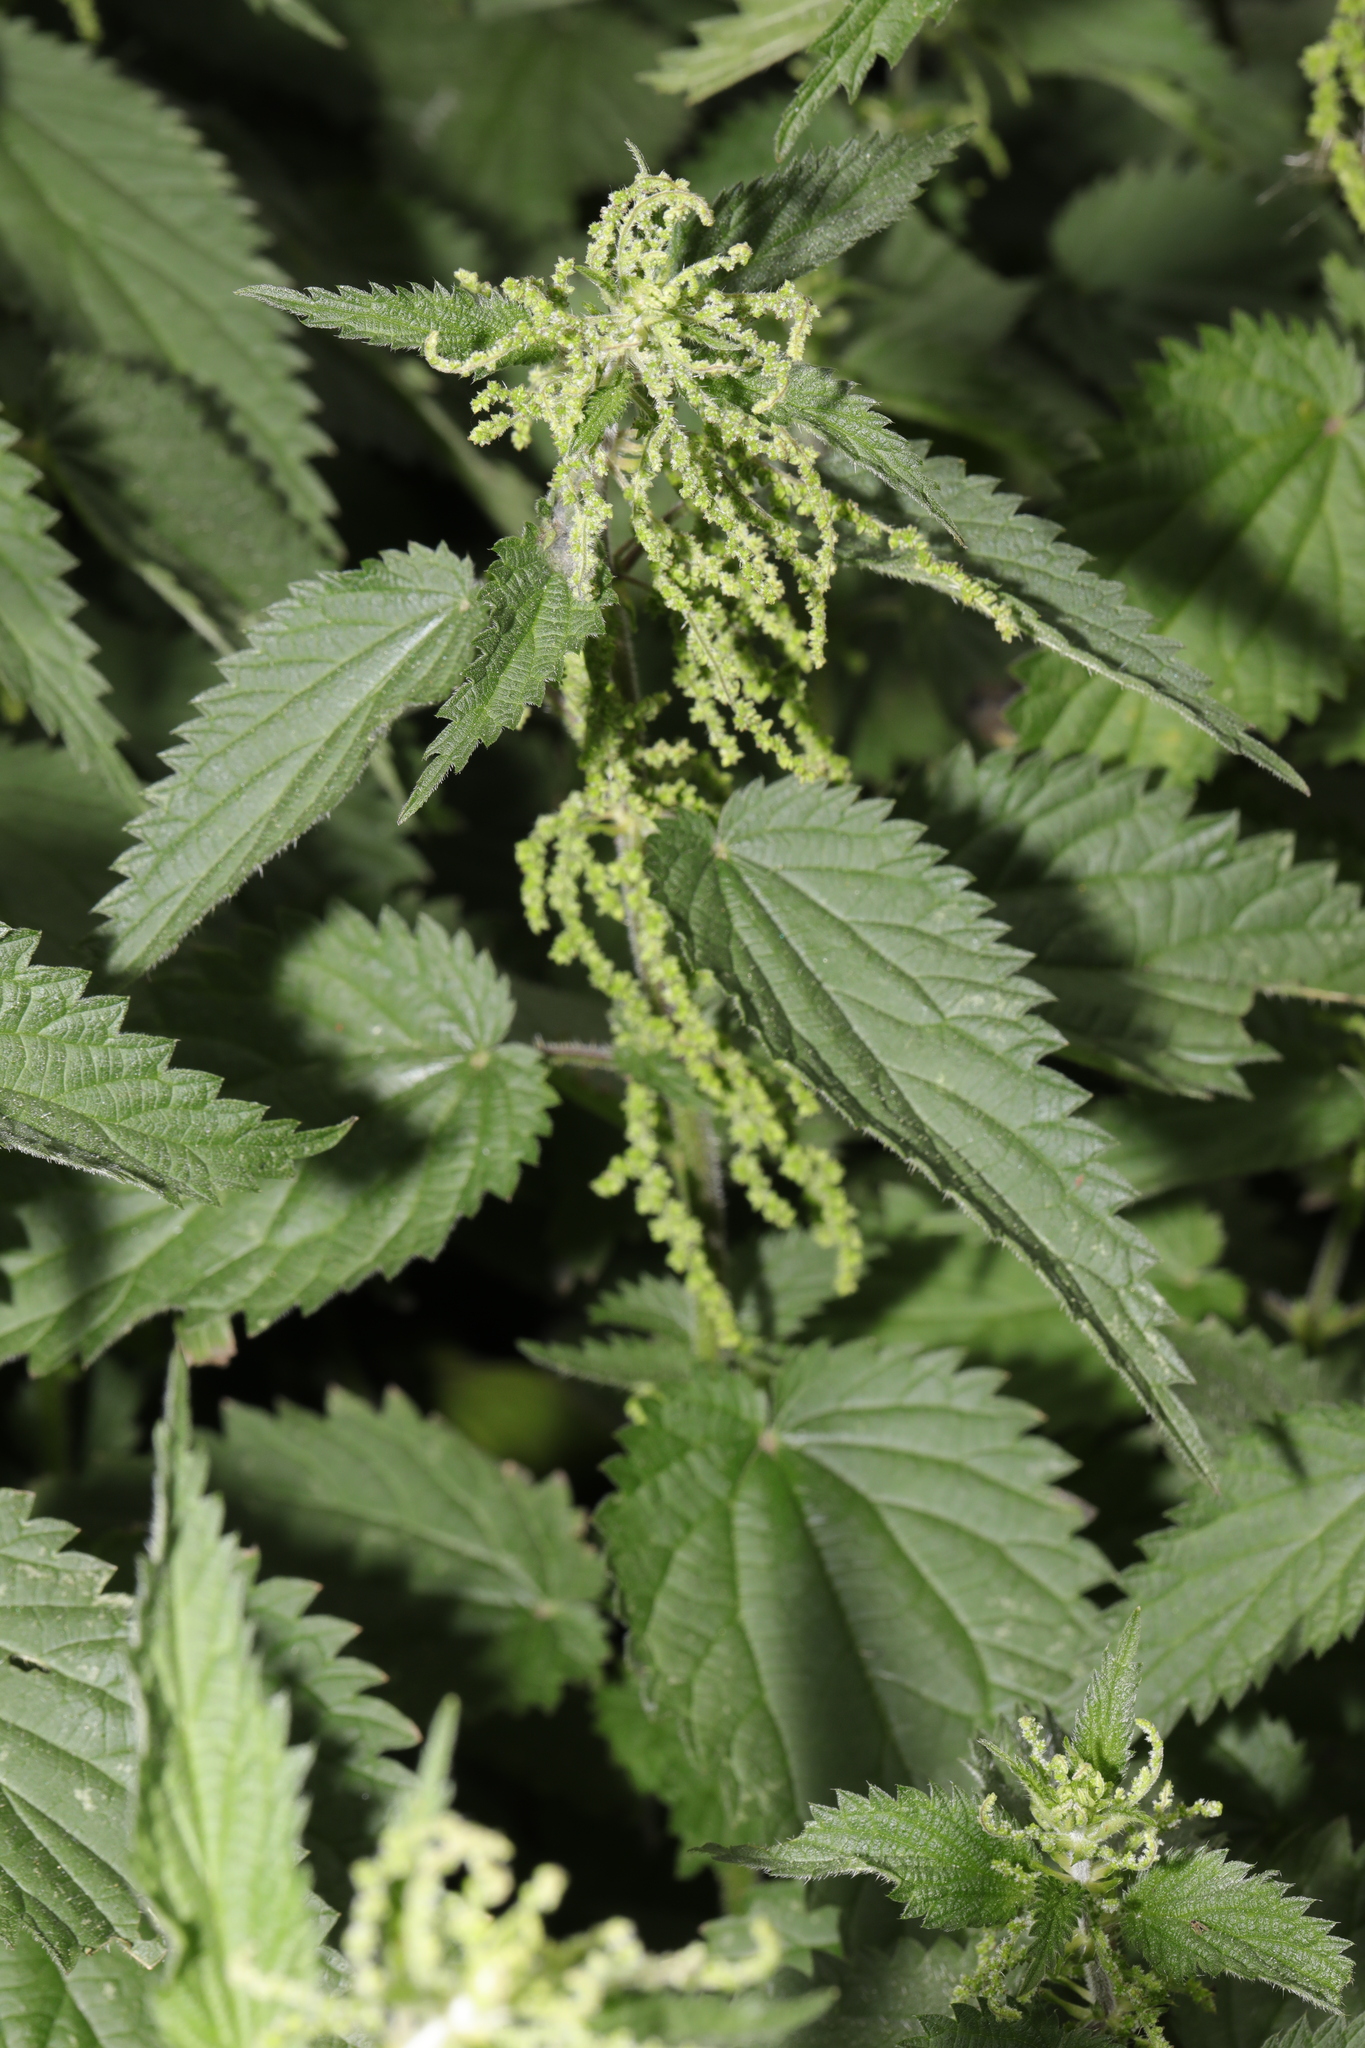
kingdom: Plantae
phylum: Tracheophyta
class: Magnoliopsida
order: Rosales
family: Urticaceae
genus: Urtica
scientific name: Urtica dioica
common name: Common nettle
